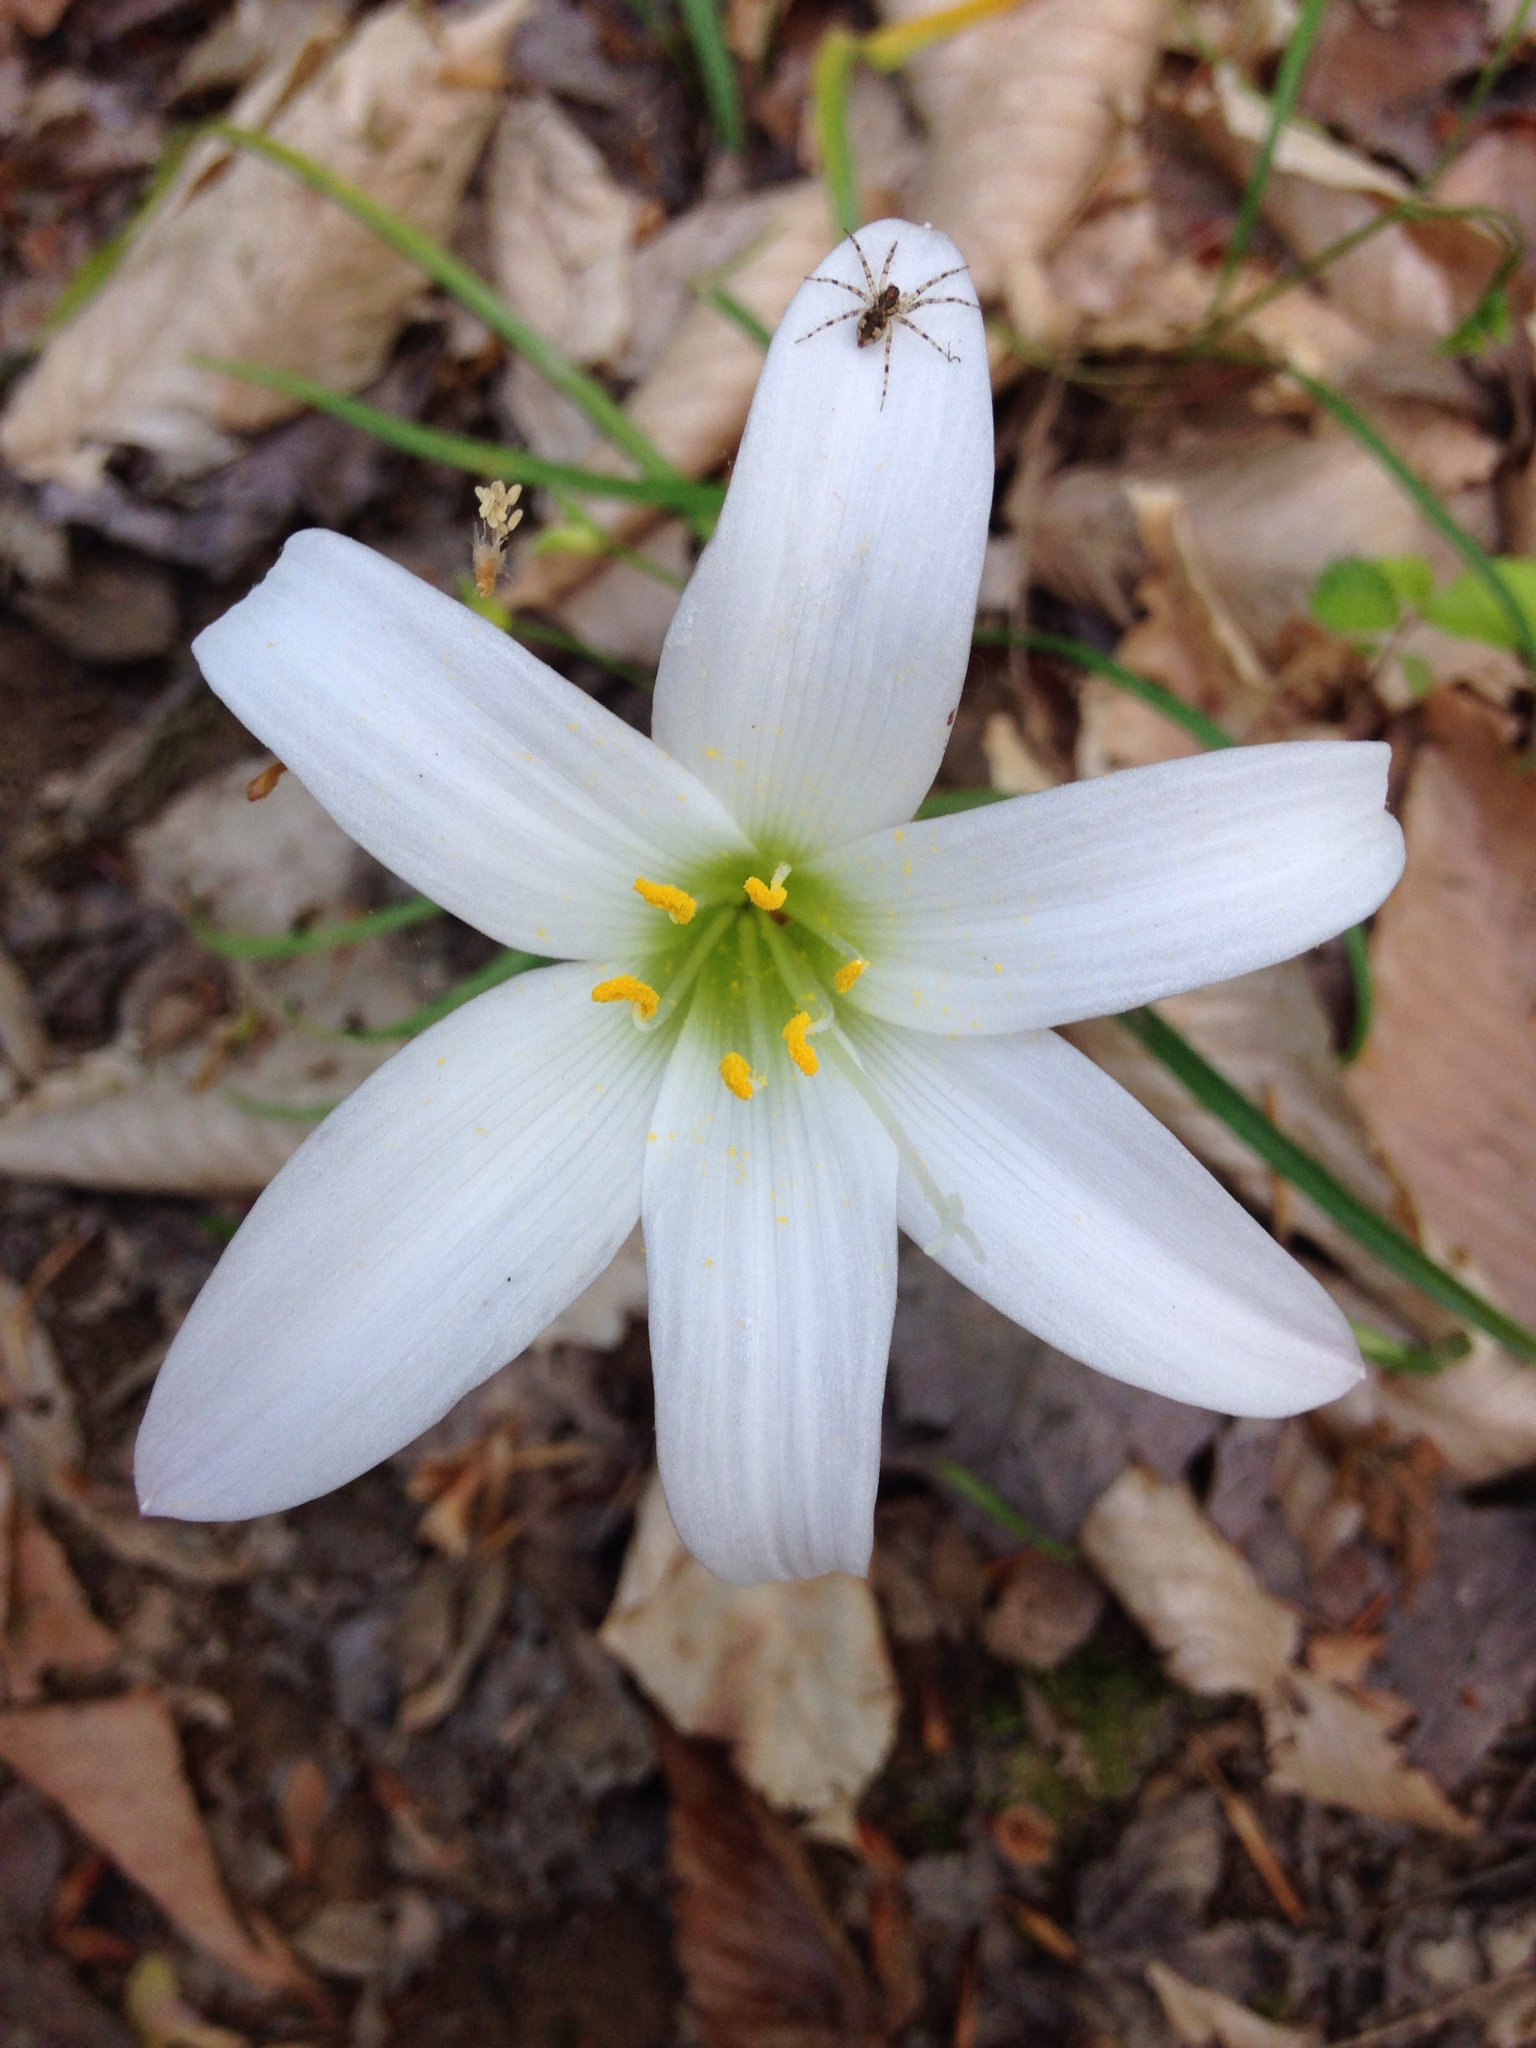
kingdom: Plantae
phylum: Tracheophyta
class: Liliopsida
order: Asparagales
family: Amaryllidaceae
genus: Zephyranthes
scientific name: Zephyranthes atamasco
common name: Atamasco lily
